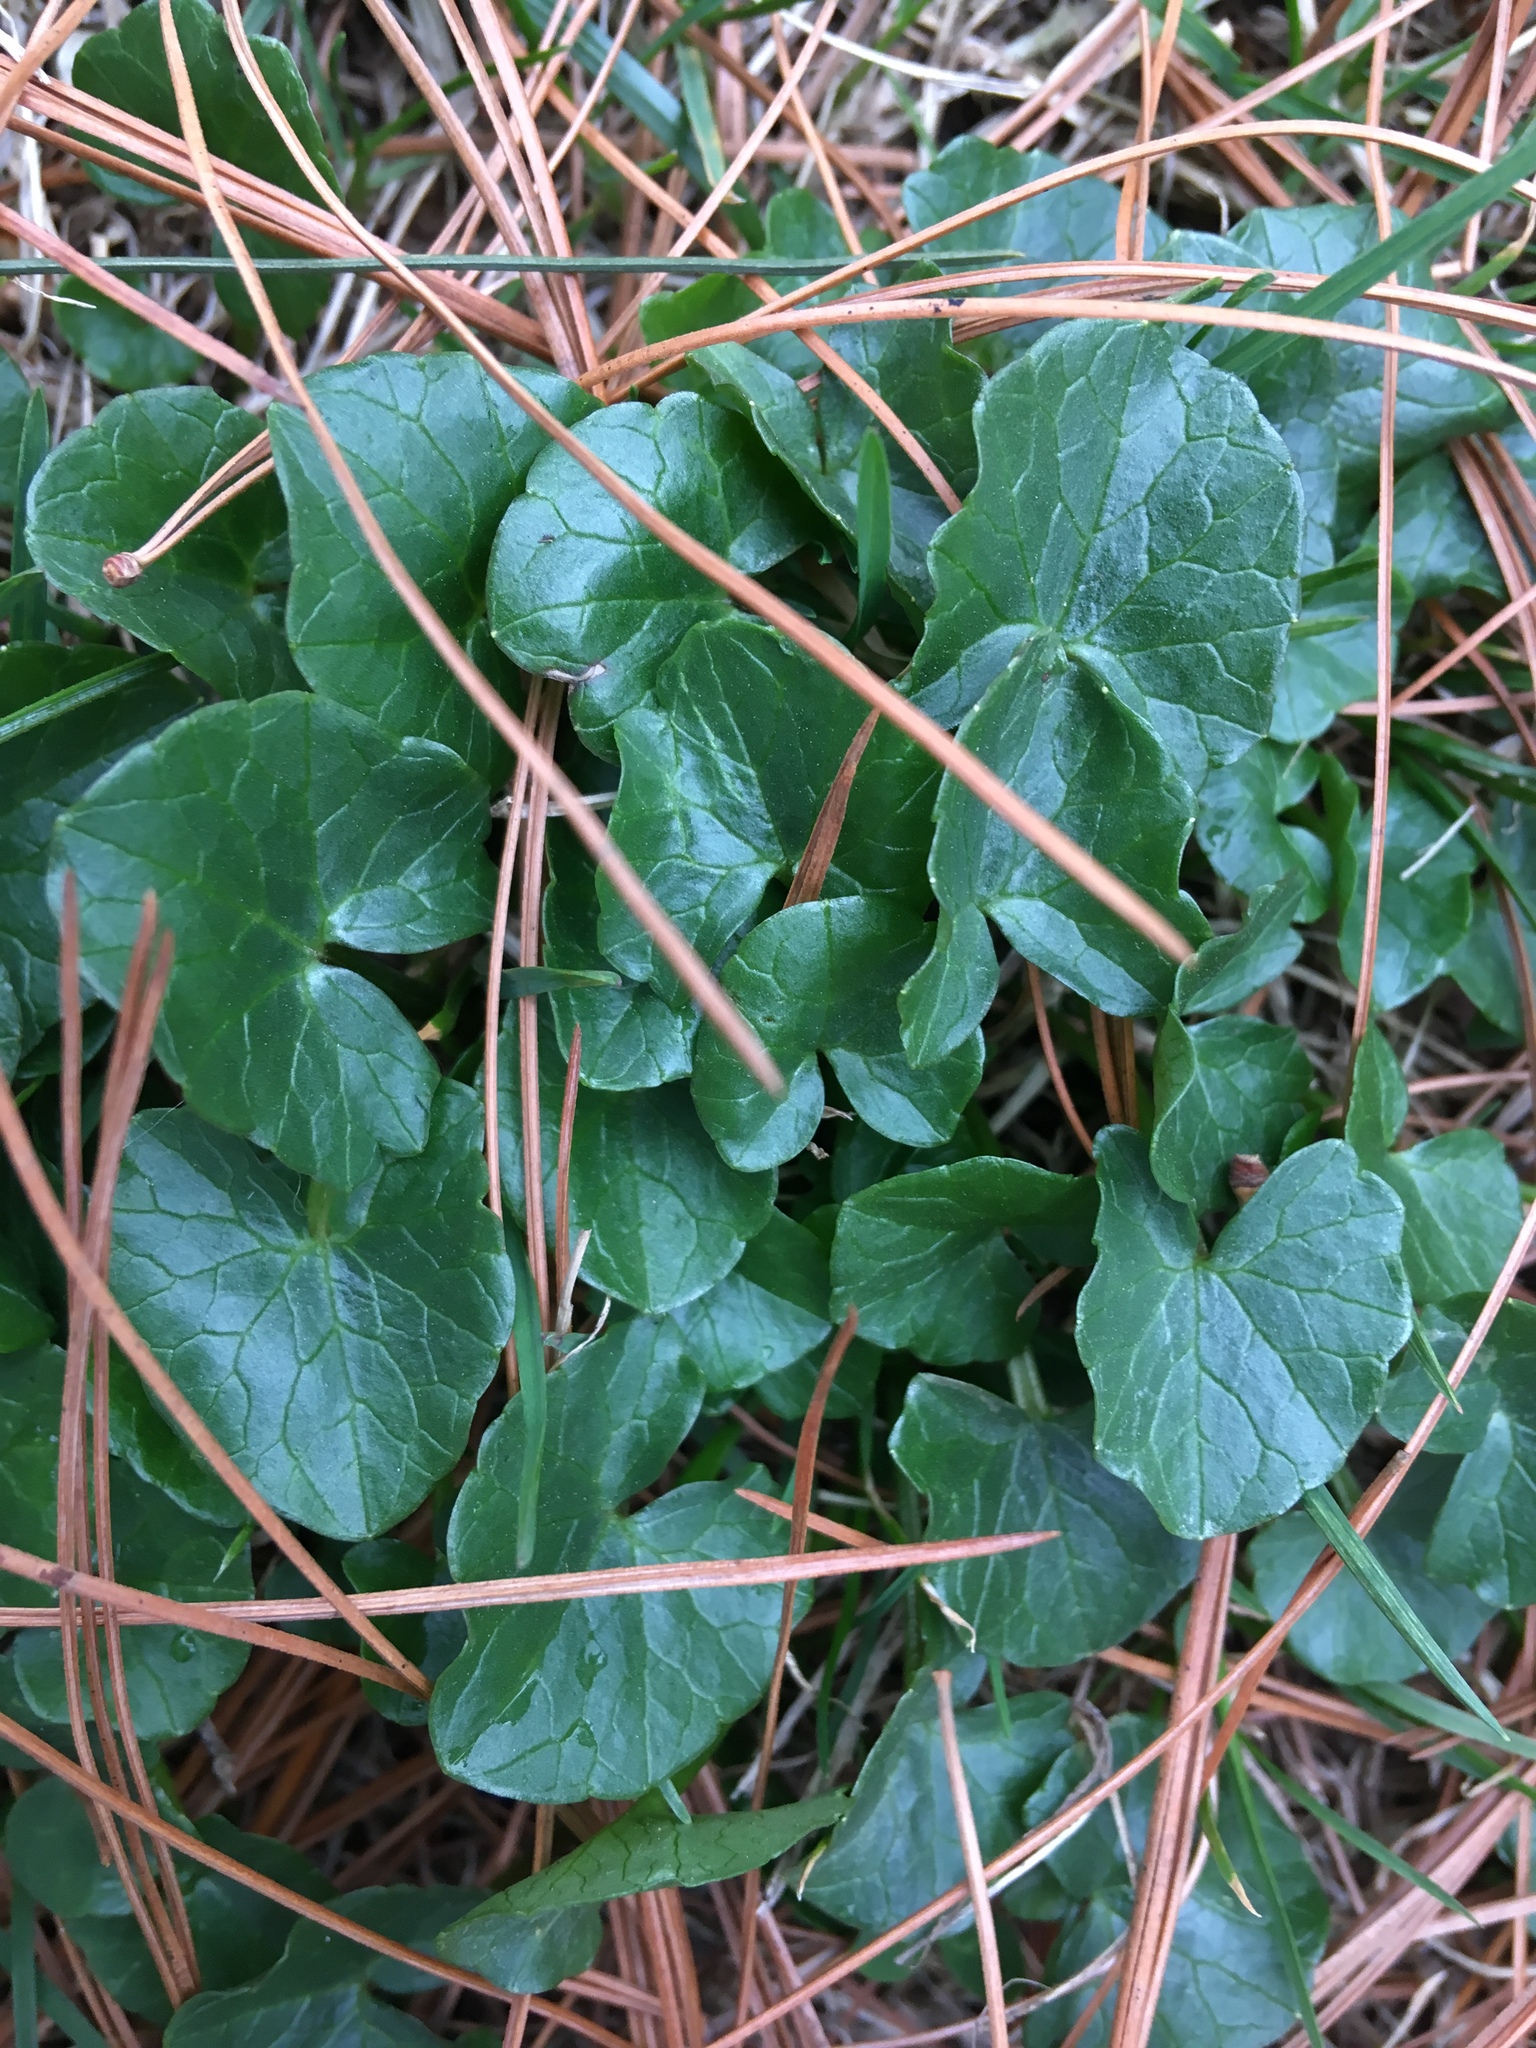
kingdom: Plantae
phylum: Tracheophyta
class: Magnoliopsida
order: Ranunculales
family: Ranunculaceae
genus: Ficaria
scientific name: Ficaria verna
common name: Lesser celandine
